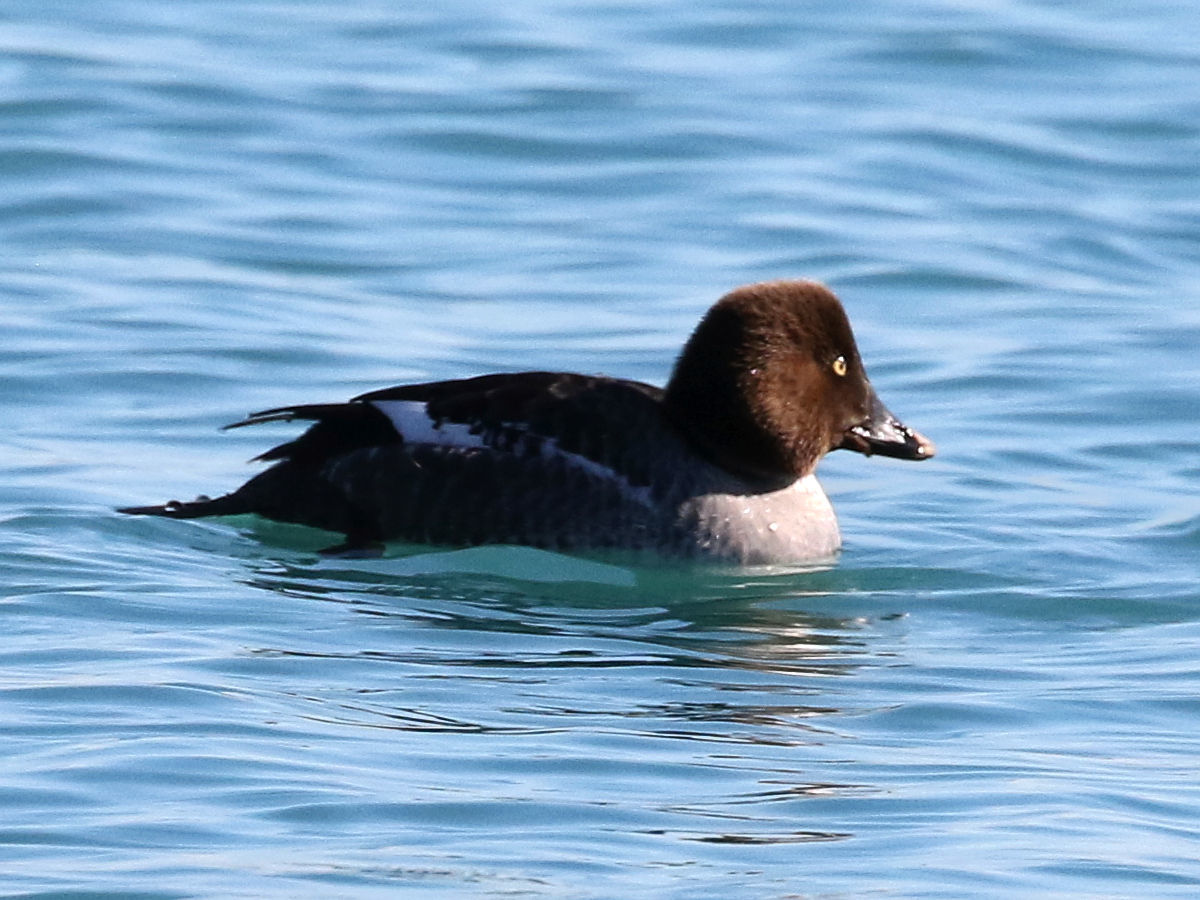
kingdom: Animalia
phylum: Chordata
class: Aves
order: Anseriformes
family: Anatidae
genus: Bucephala
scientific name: Bucephala clangula
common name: Common goldeneye
